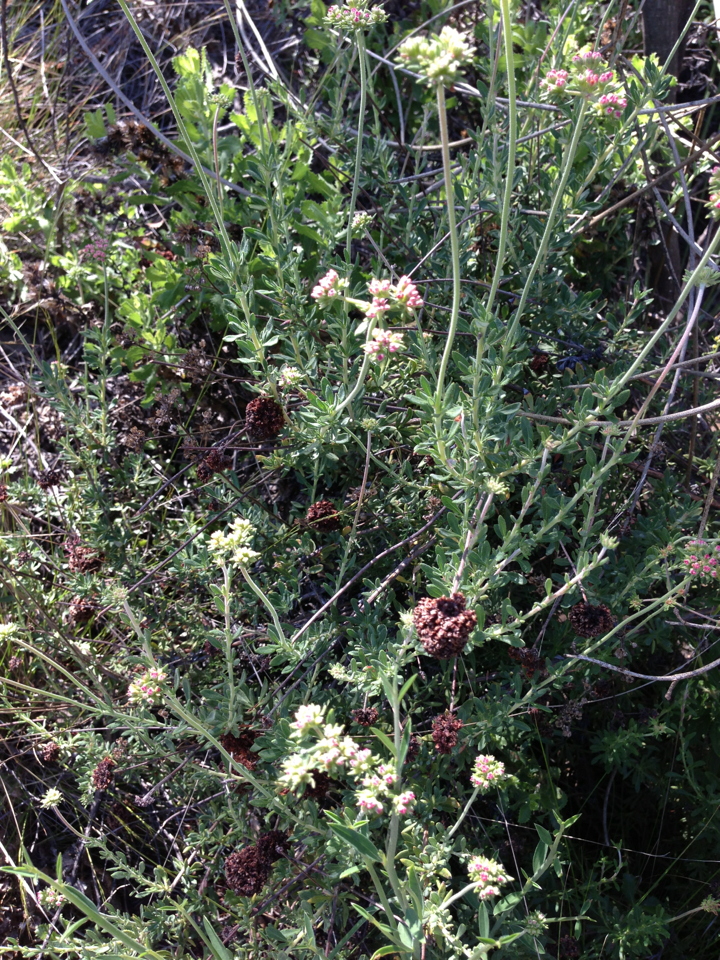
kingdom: Plantae
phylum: Tracheophyta
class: Magnoliopsida
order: Caryophyllales
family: Polygonaceae
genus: Eriogonum
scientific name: Eriogonum fasciculatum
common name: California wild buckwheat
